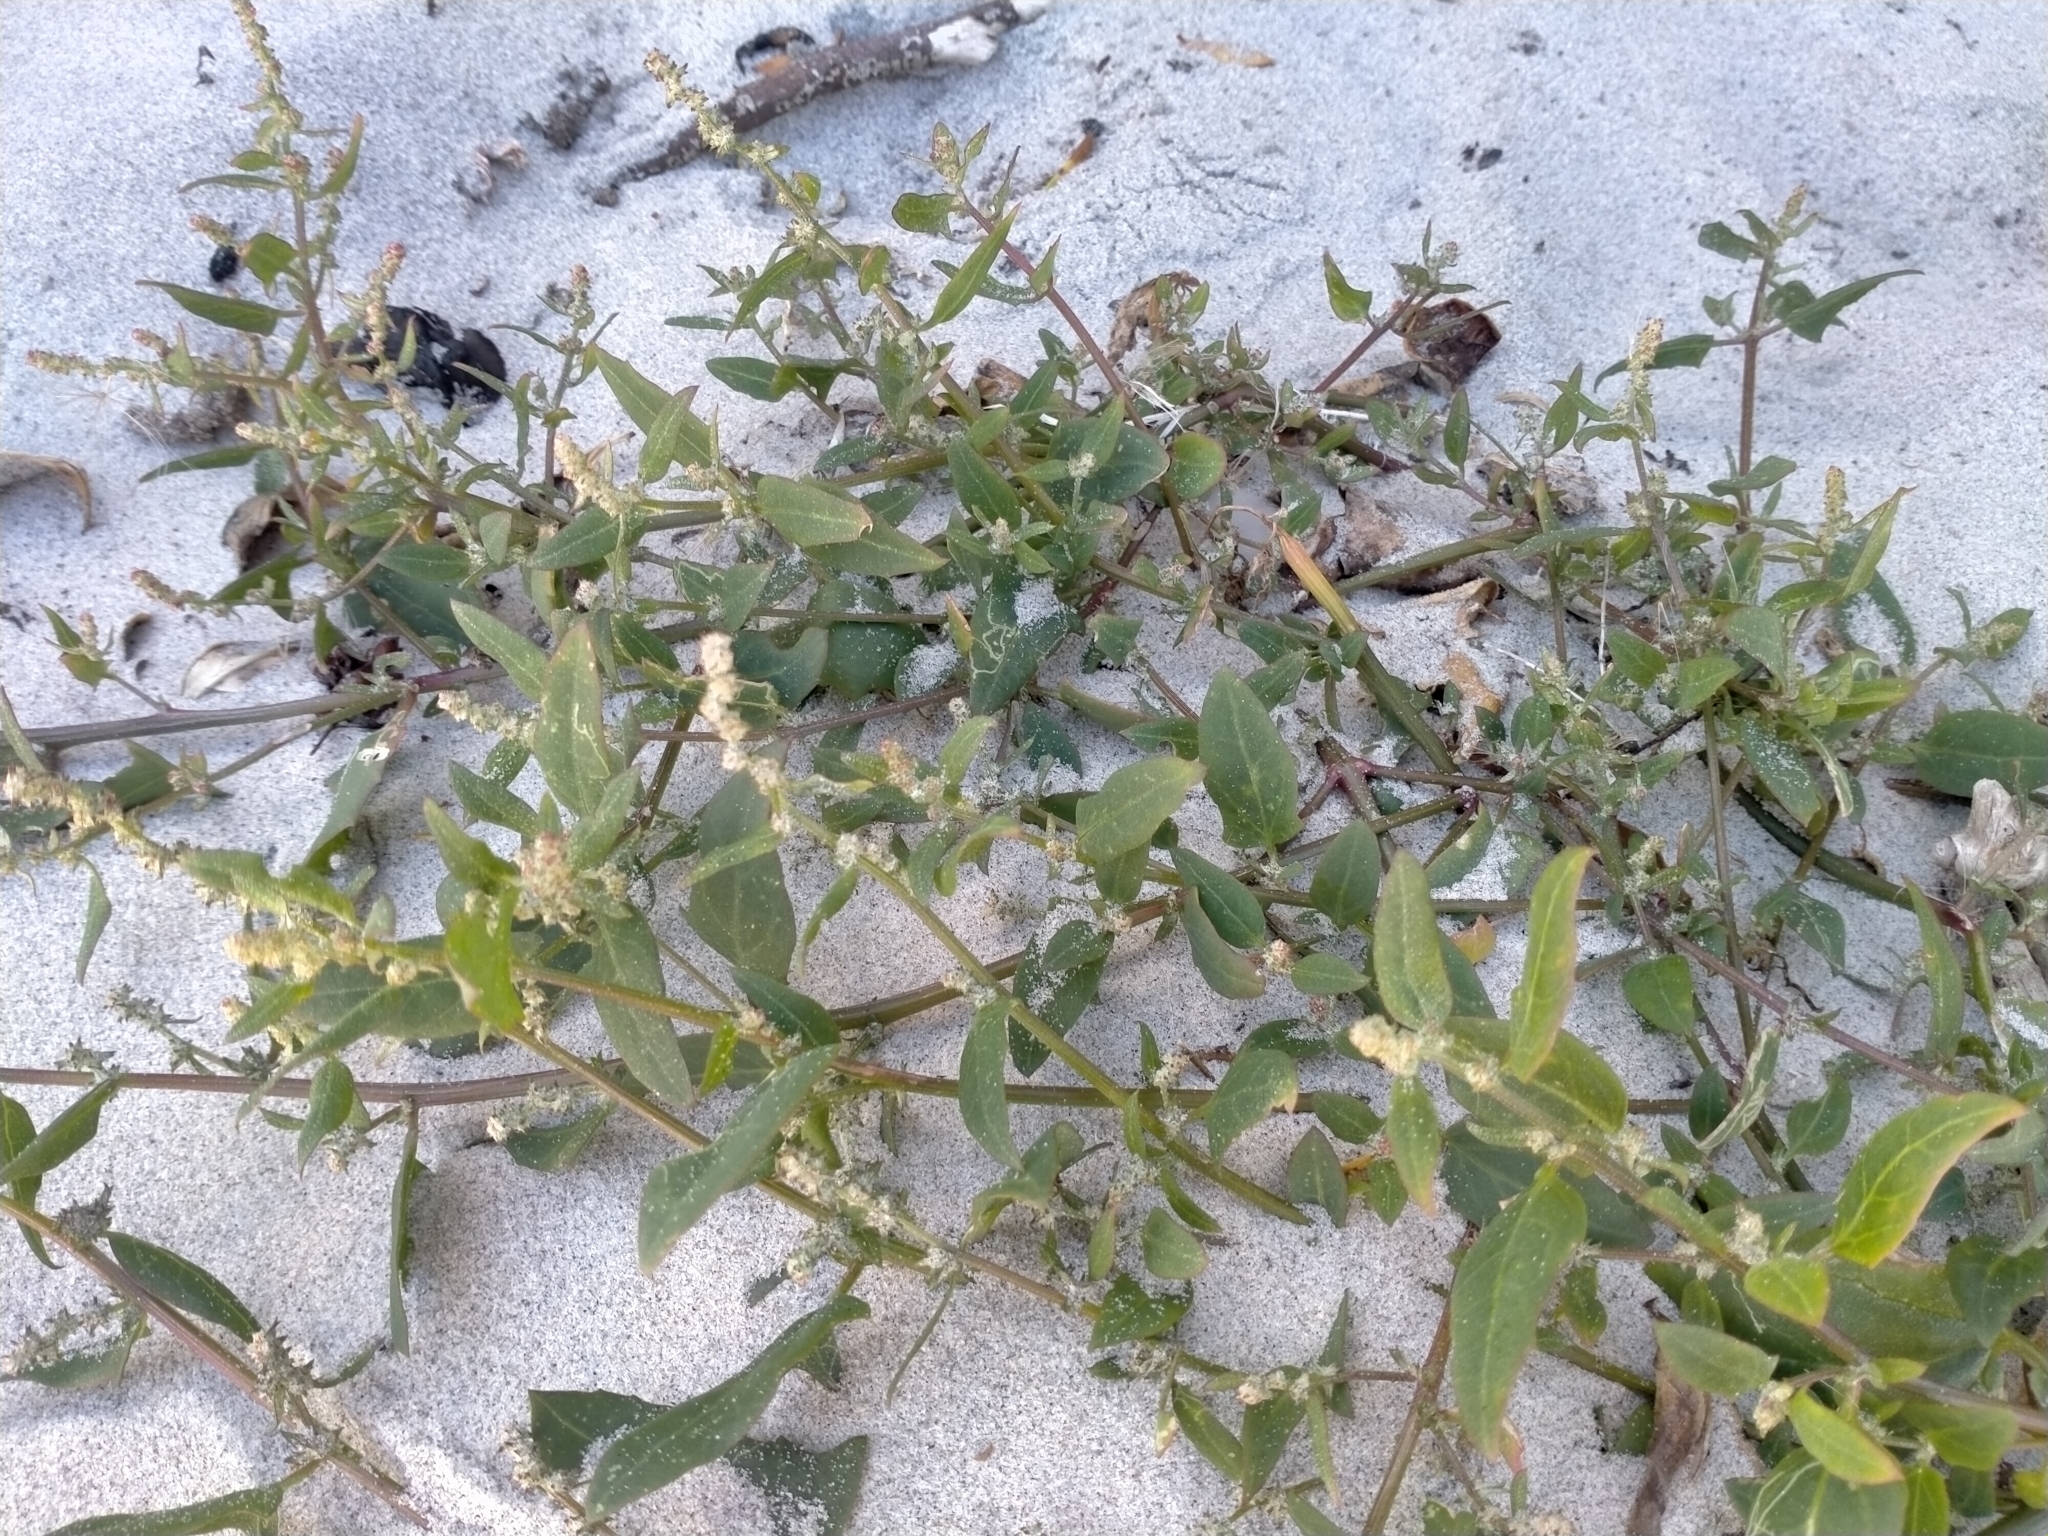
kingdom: Plantae
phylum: Tracheophyta
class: Magnoliopsida
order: Caryophyllales
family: Amaranthaceae
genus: Atriplex
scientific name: Atriplex prostrata
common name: Spear-leaved orache
